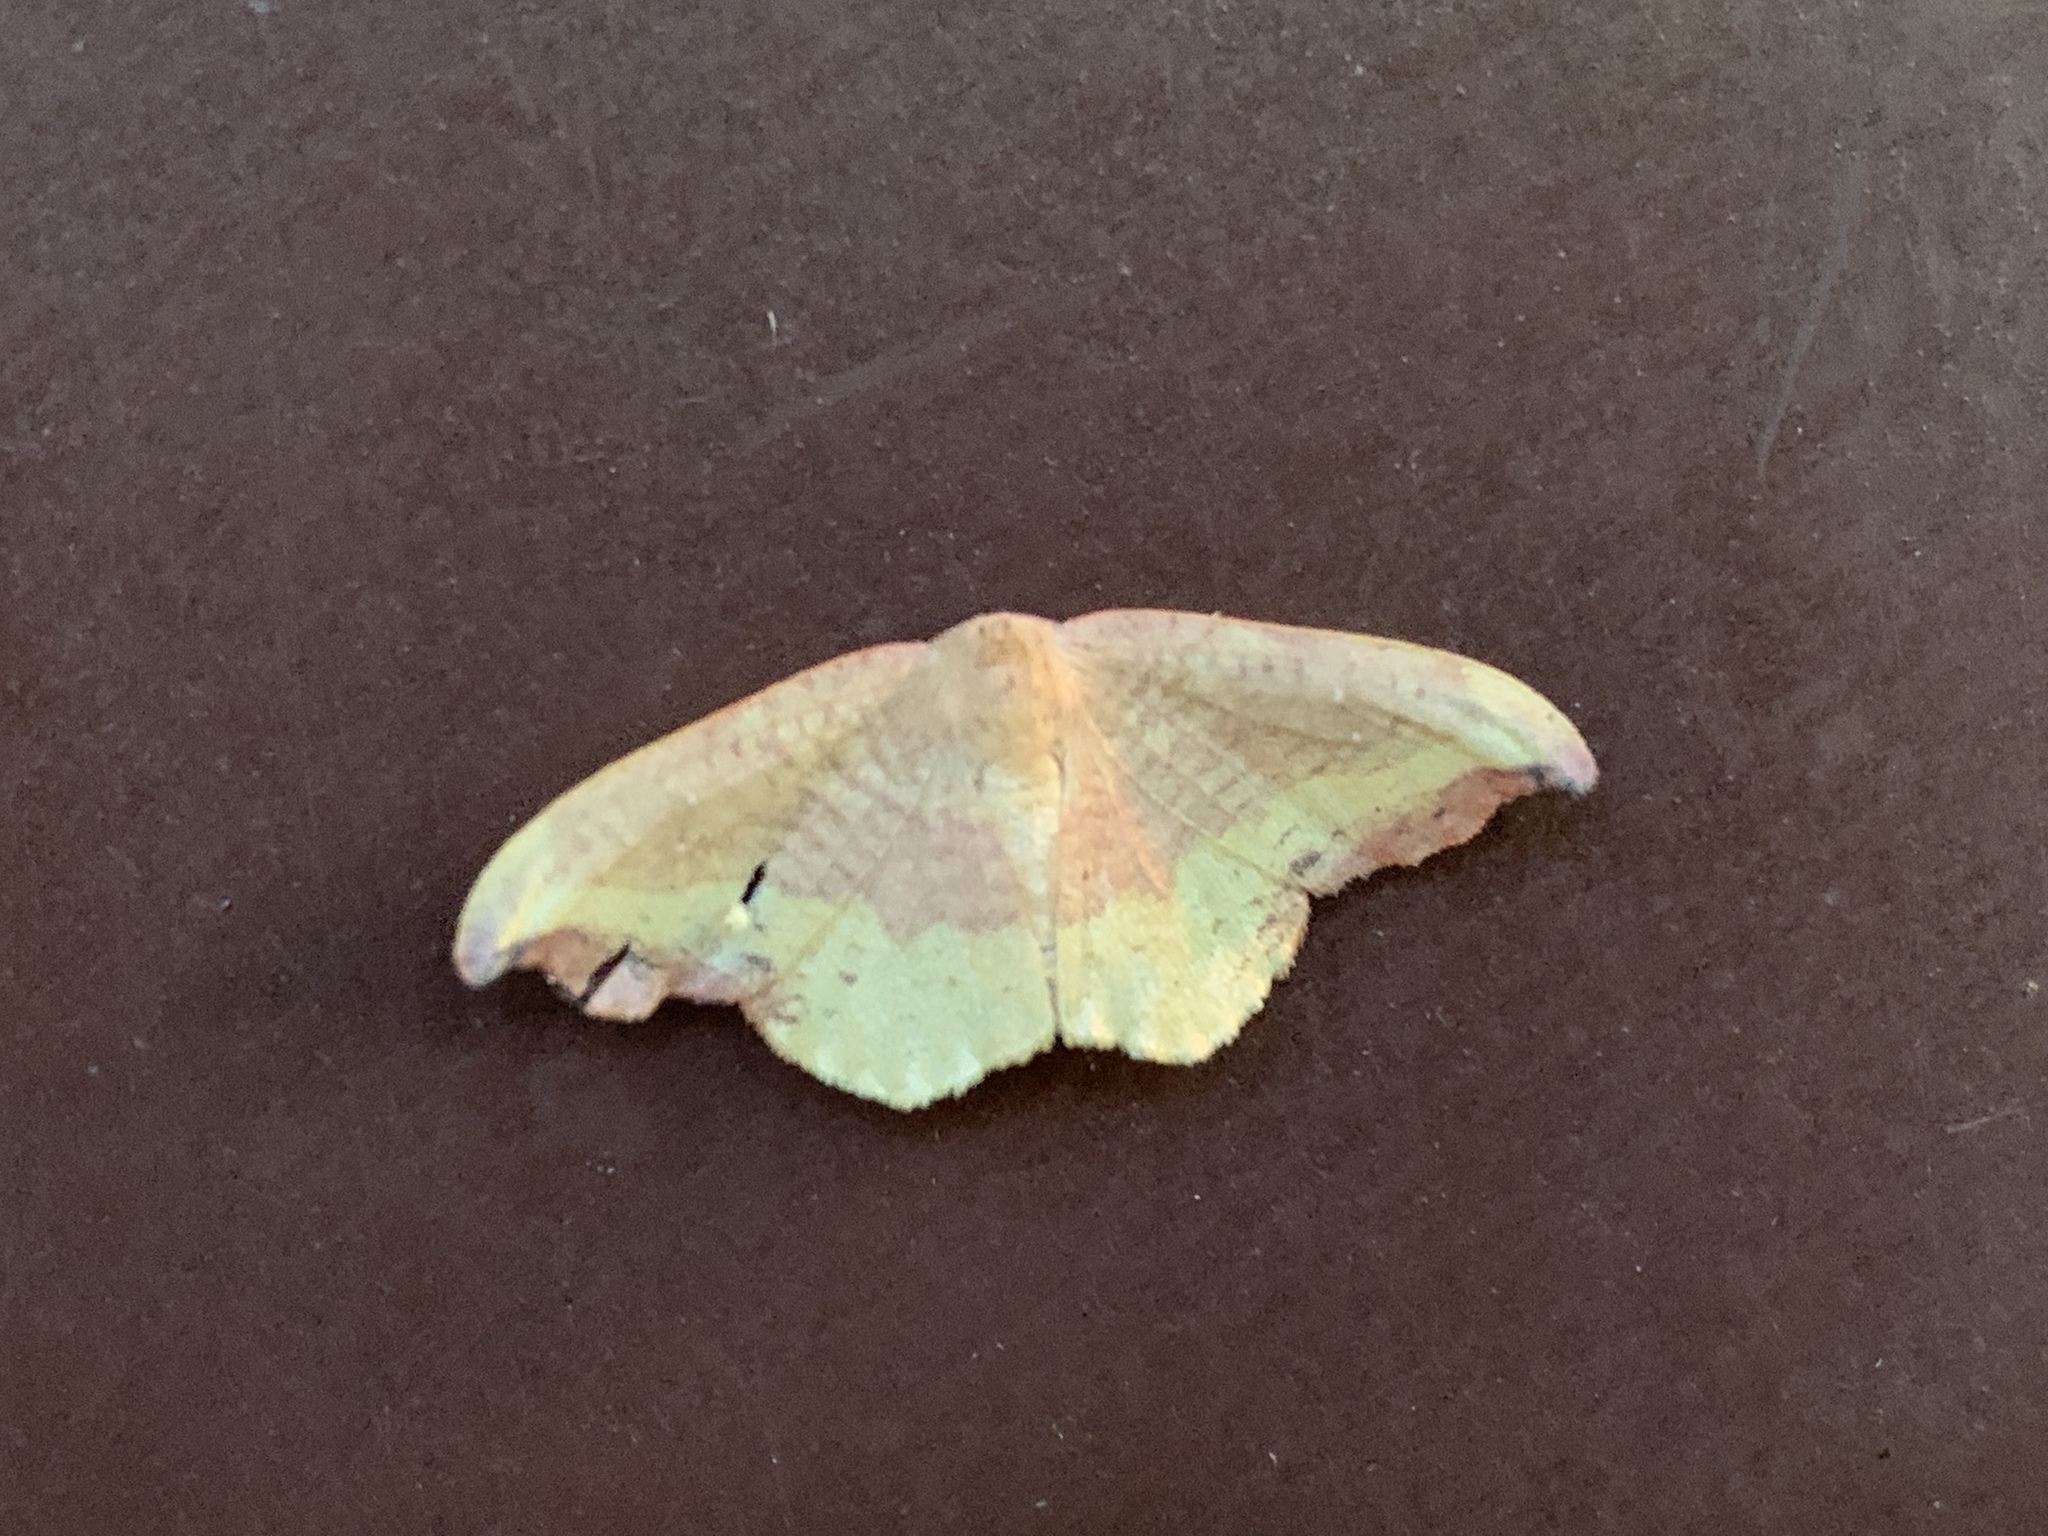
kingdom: Animalia
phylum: Arthropoda
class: Insecta
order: Lepidoptera
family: Drepanidae
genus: Oreta
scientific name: Oreta rosea
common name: Rose hooktip
